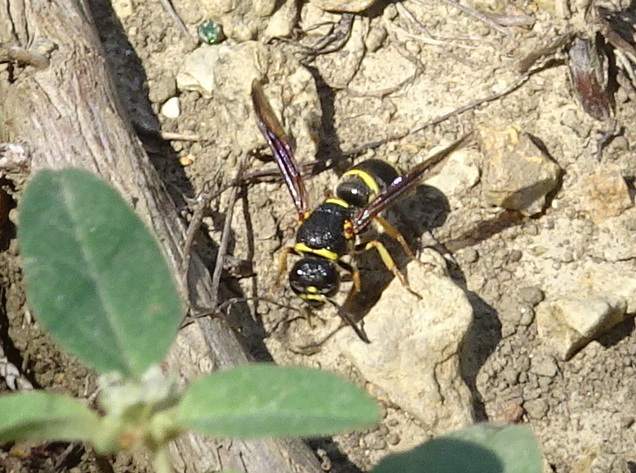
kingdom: Animalia
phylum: Arthropoda
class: Insecta
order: Hymenoptera
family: Eumenidae
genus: Euodynerus
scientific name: Euodynerus foraminatus
